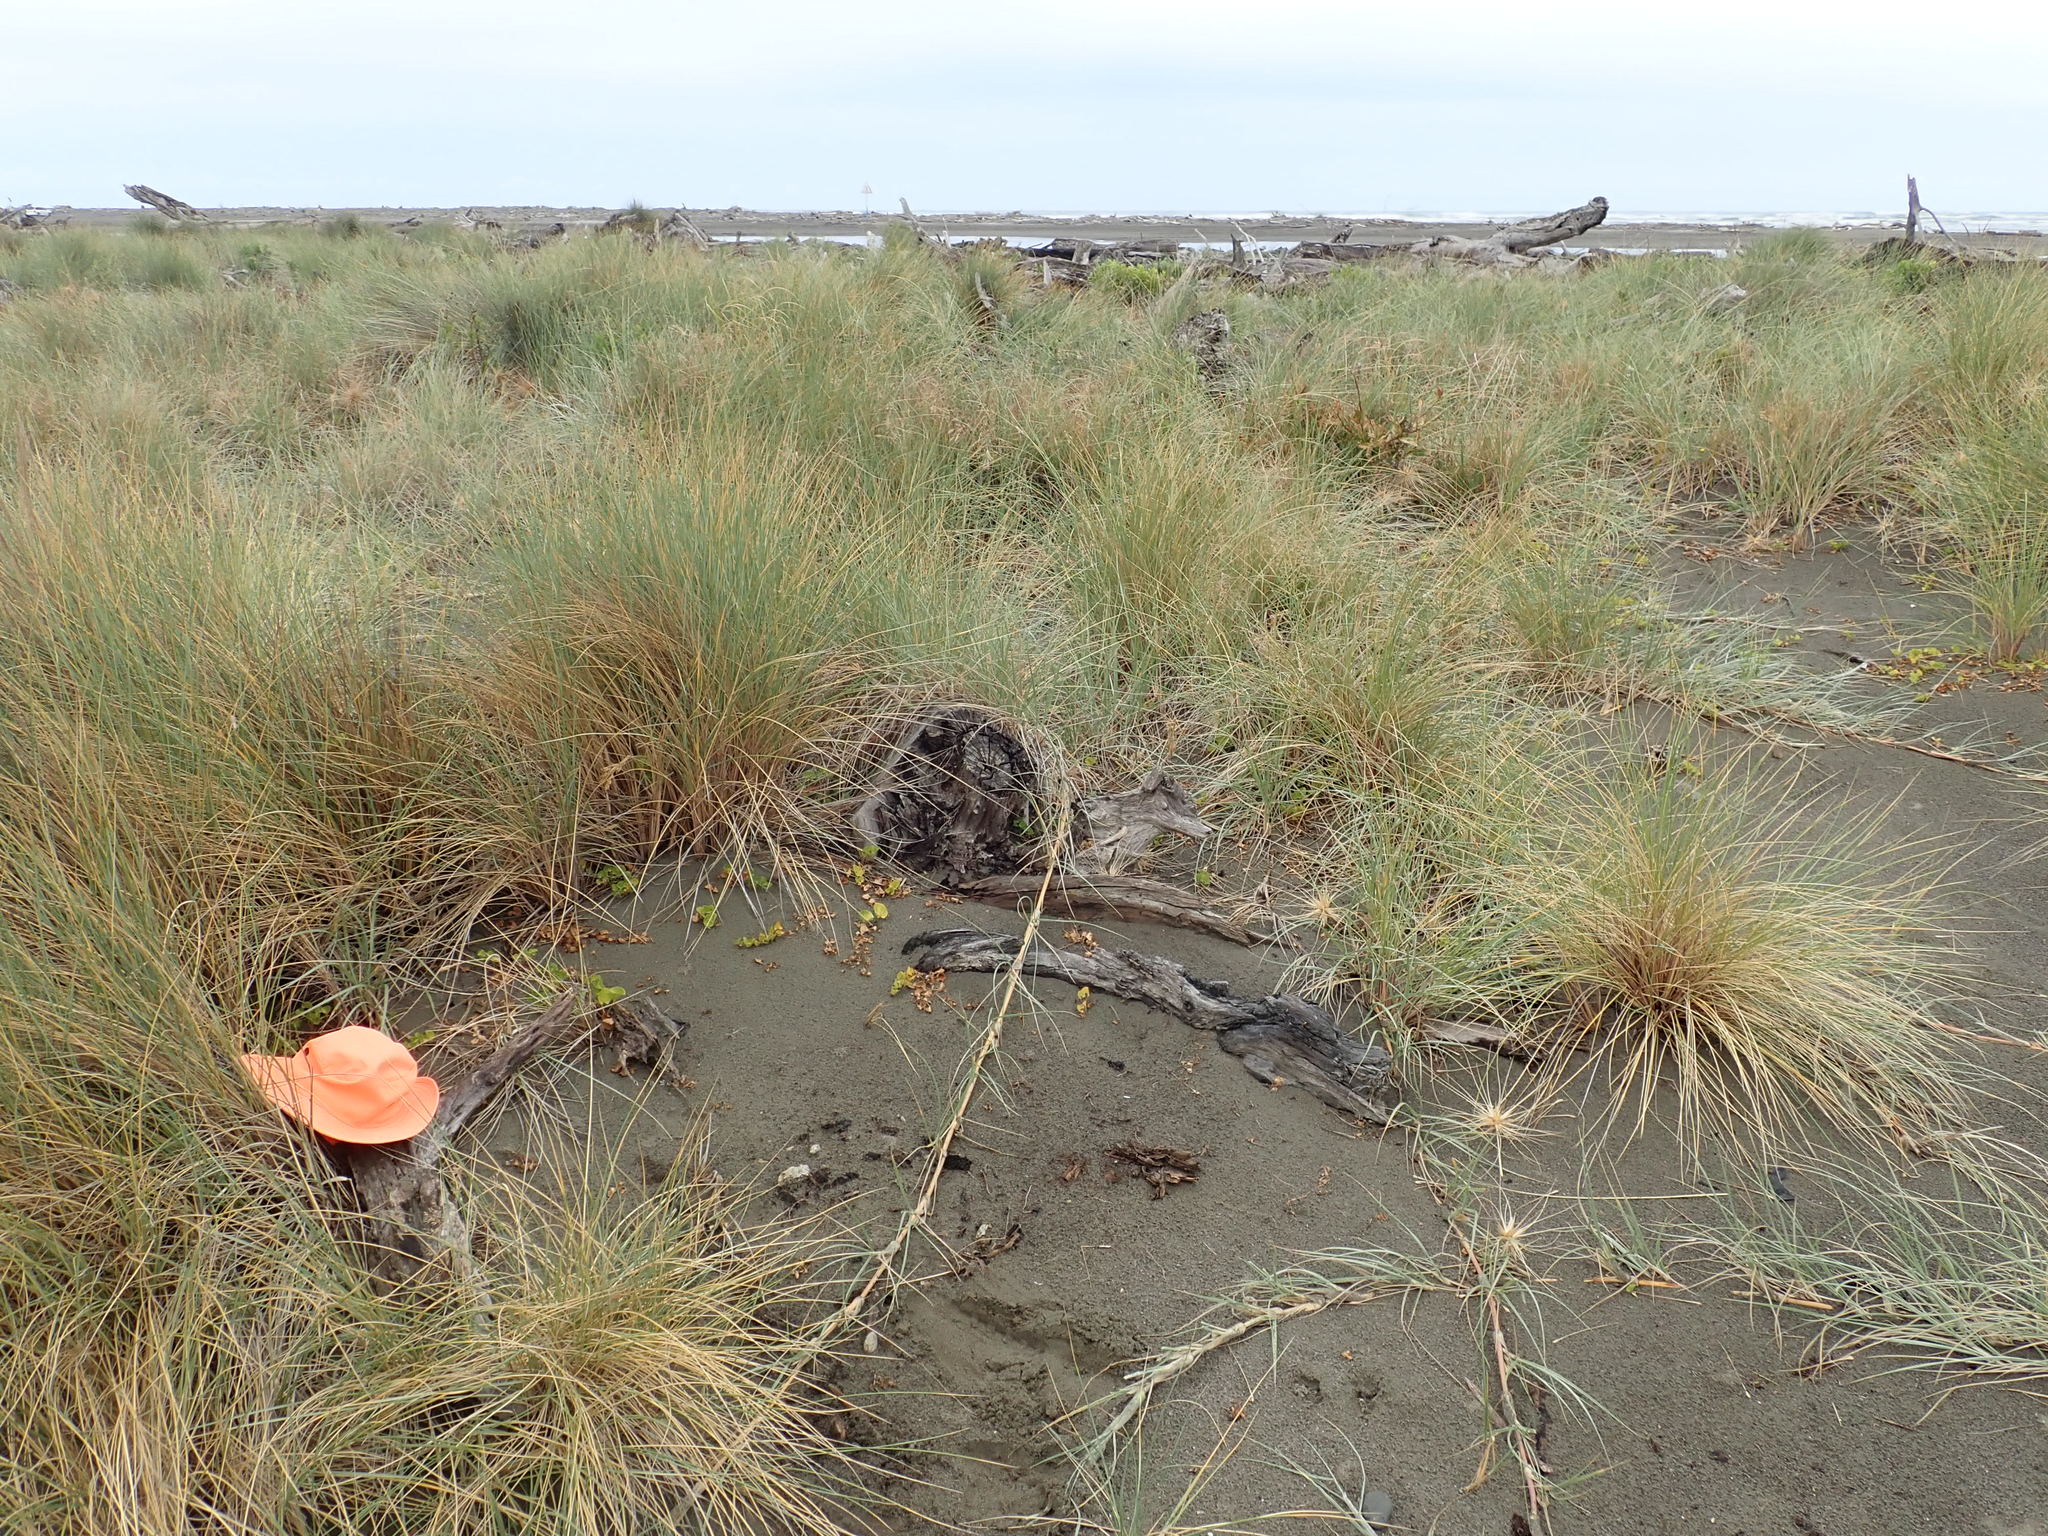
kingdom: Animalia
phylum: Arthropoda
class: Arachnida
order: Araneae
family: Theridiidae
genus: Steatoda
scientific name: Steatoda lepida
